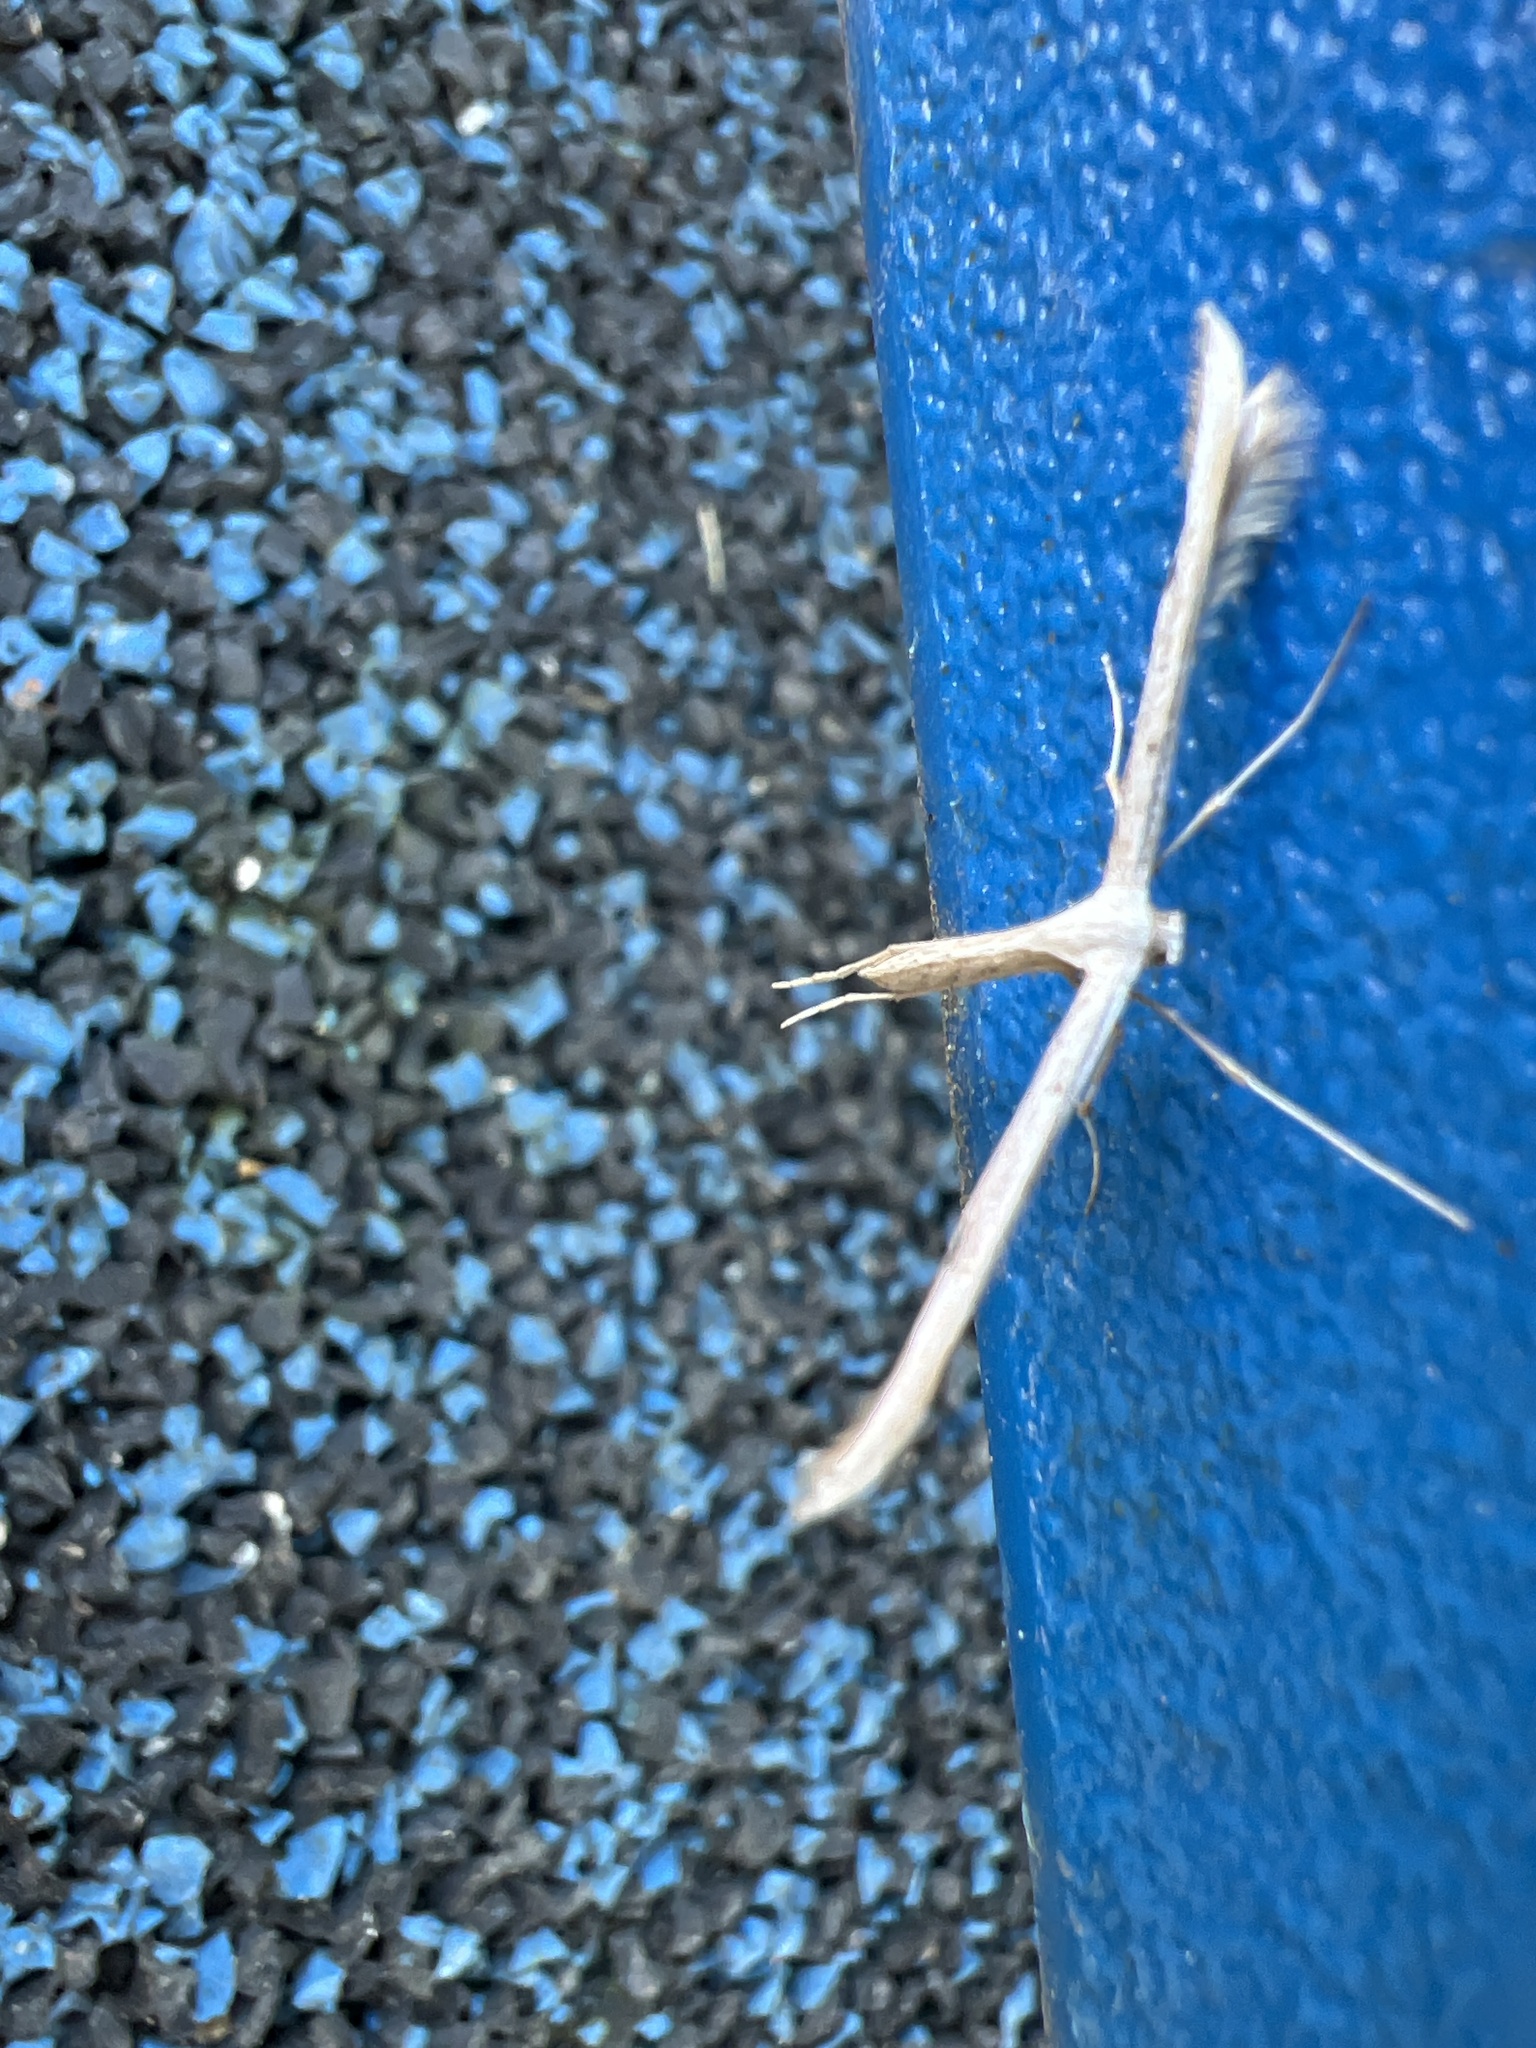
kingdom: Animalia
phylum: Arthropoda
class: Insecta
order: Lepidoptera
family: Pterophoridae
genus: Emmelina
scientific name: Emmelina monodactyla
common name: Common plume
